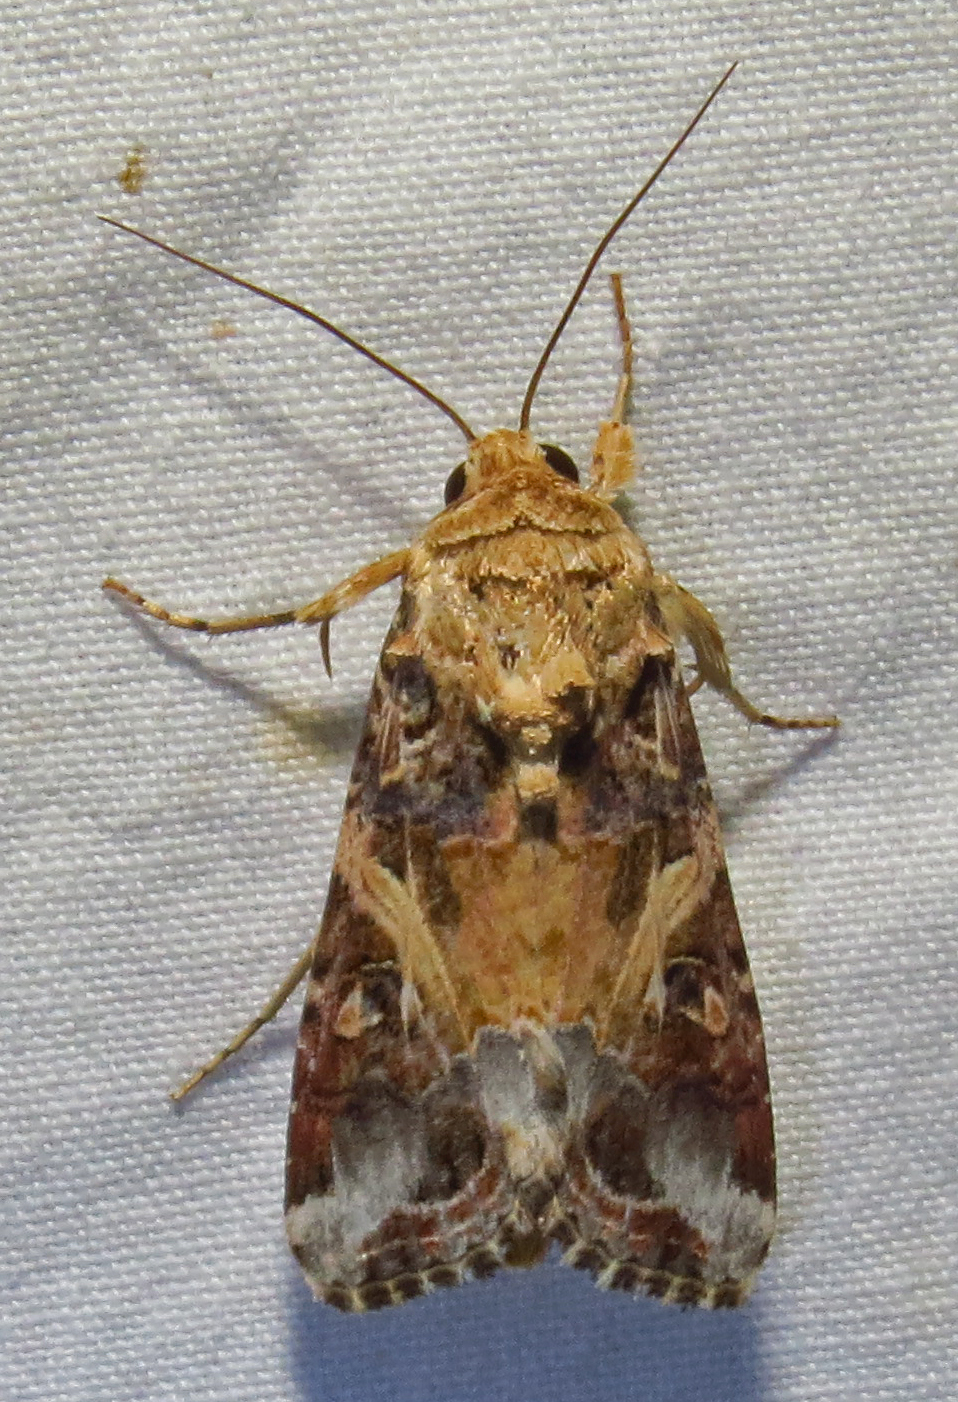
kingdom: Animalia
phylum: Arthropoda
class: Insecta
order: Lepidoptera
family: Noctuidae
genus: Spodoptera
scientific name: Spodoptera ornithogalli
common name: Yellow-striped armyworm
